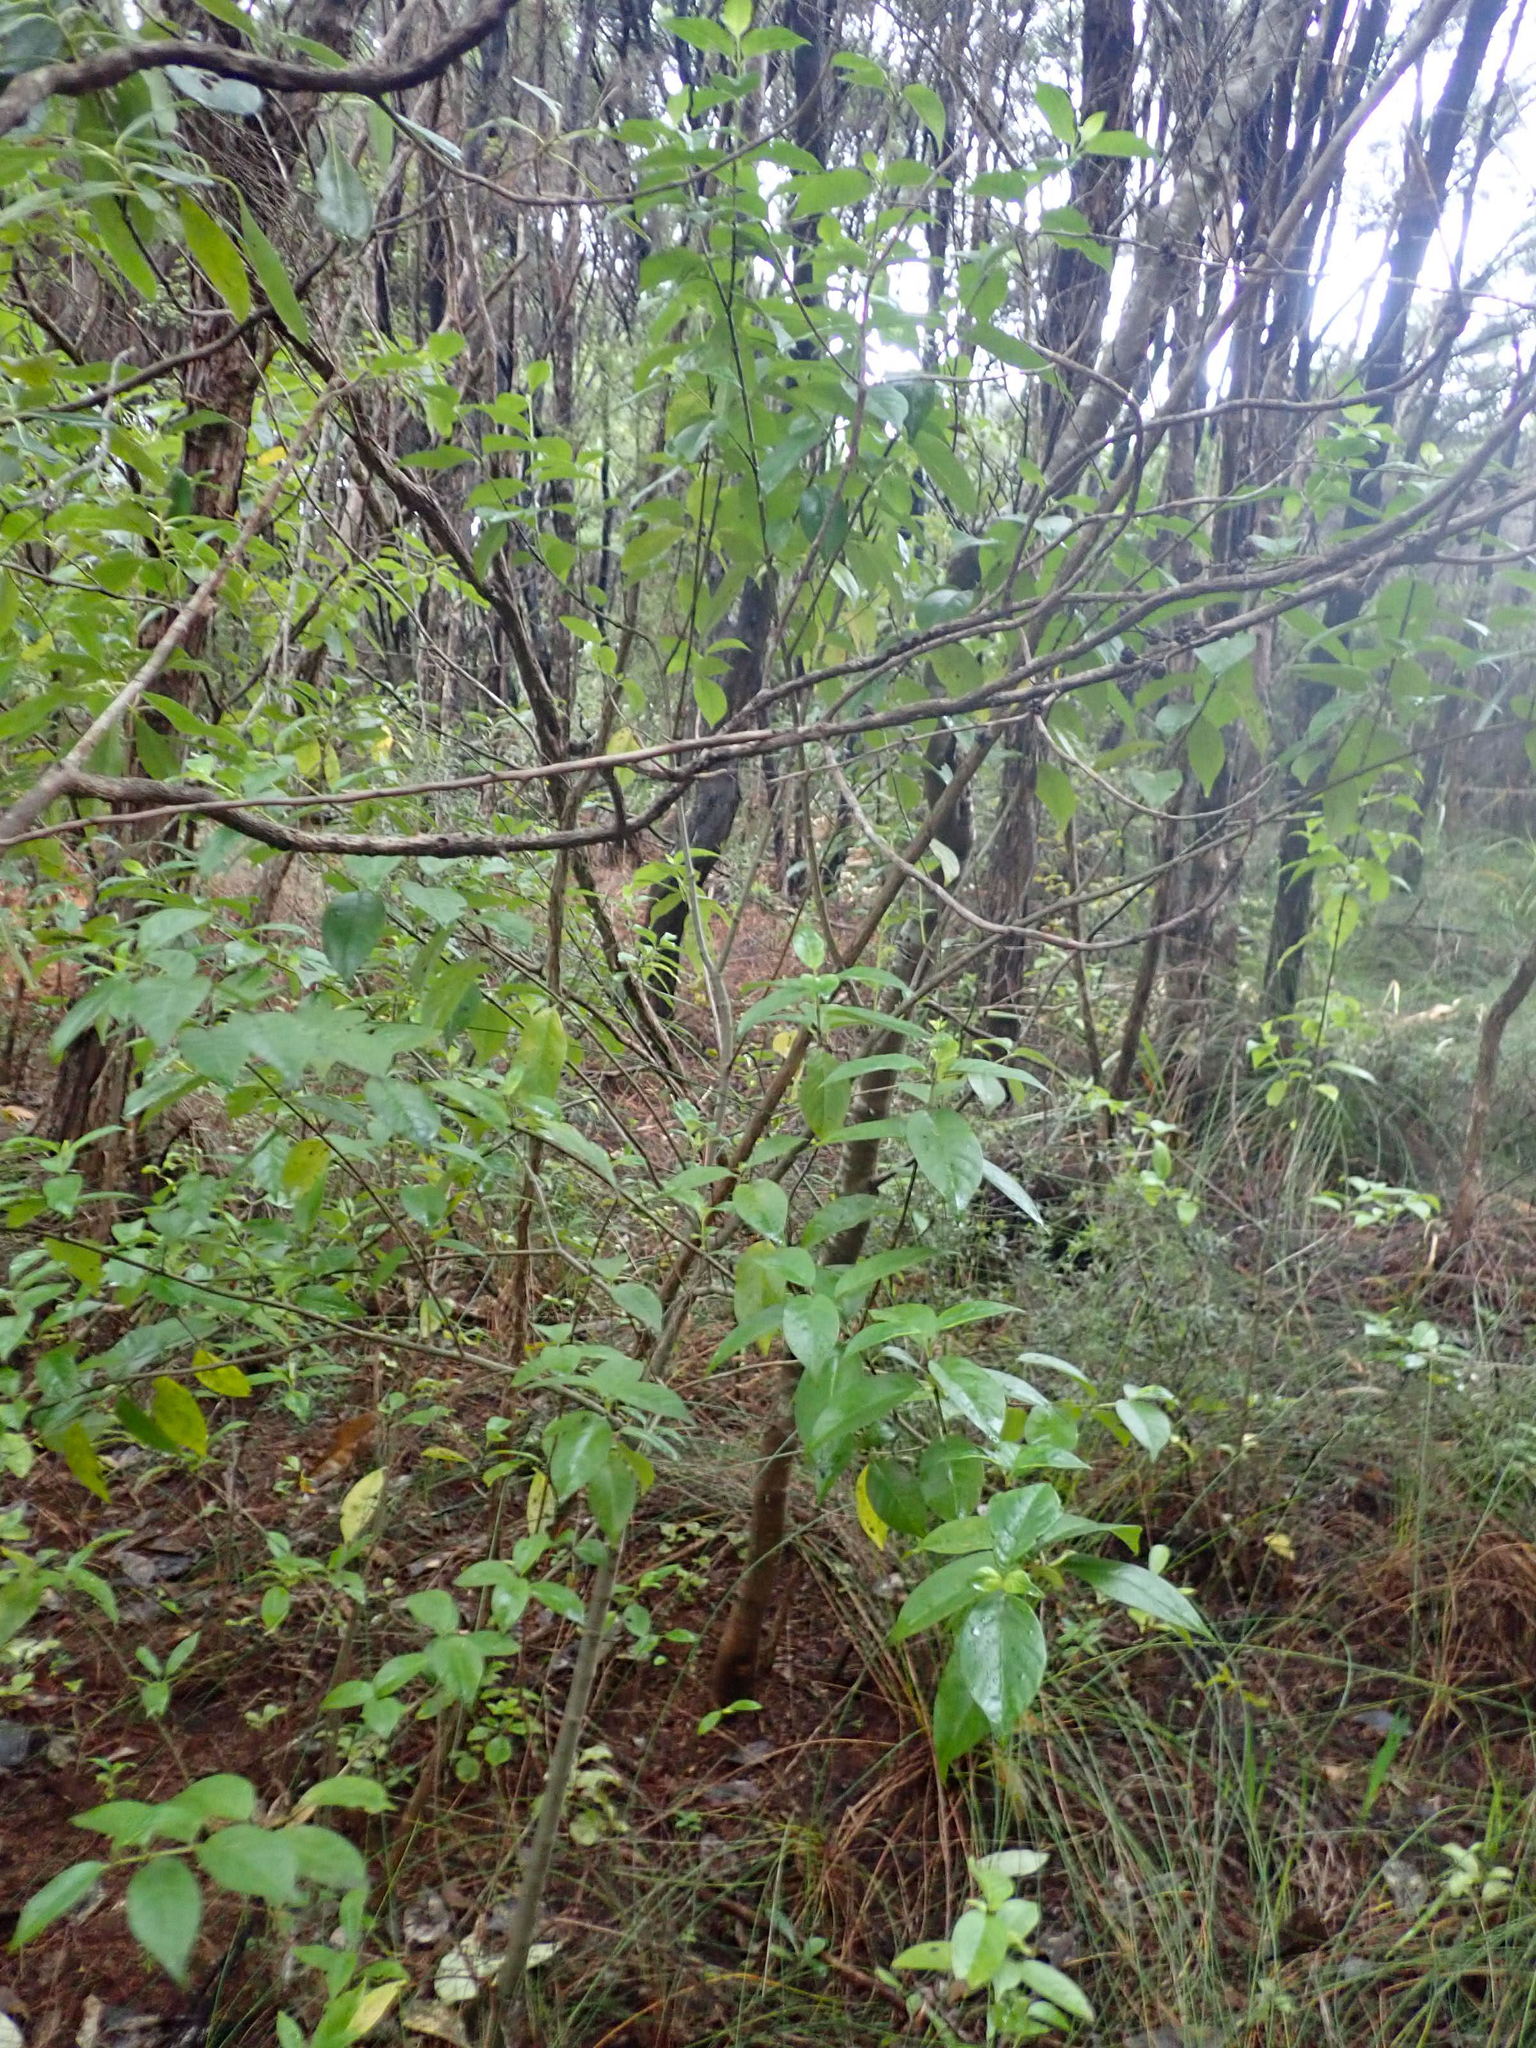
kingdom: Plantae
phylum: Tracheophyta
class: Magnoliopsida
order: Gentianales
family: Loganiaceae
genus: Geniostoma
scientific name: Geniostoma ligustrifolium
